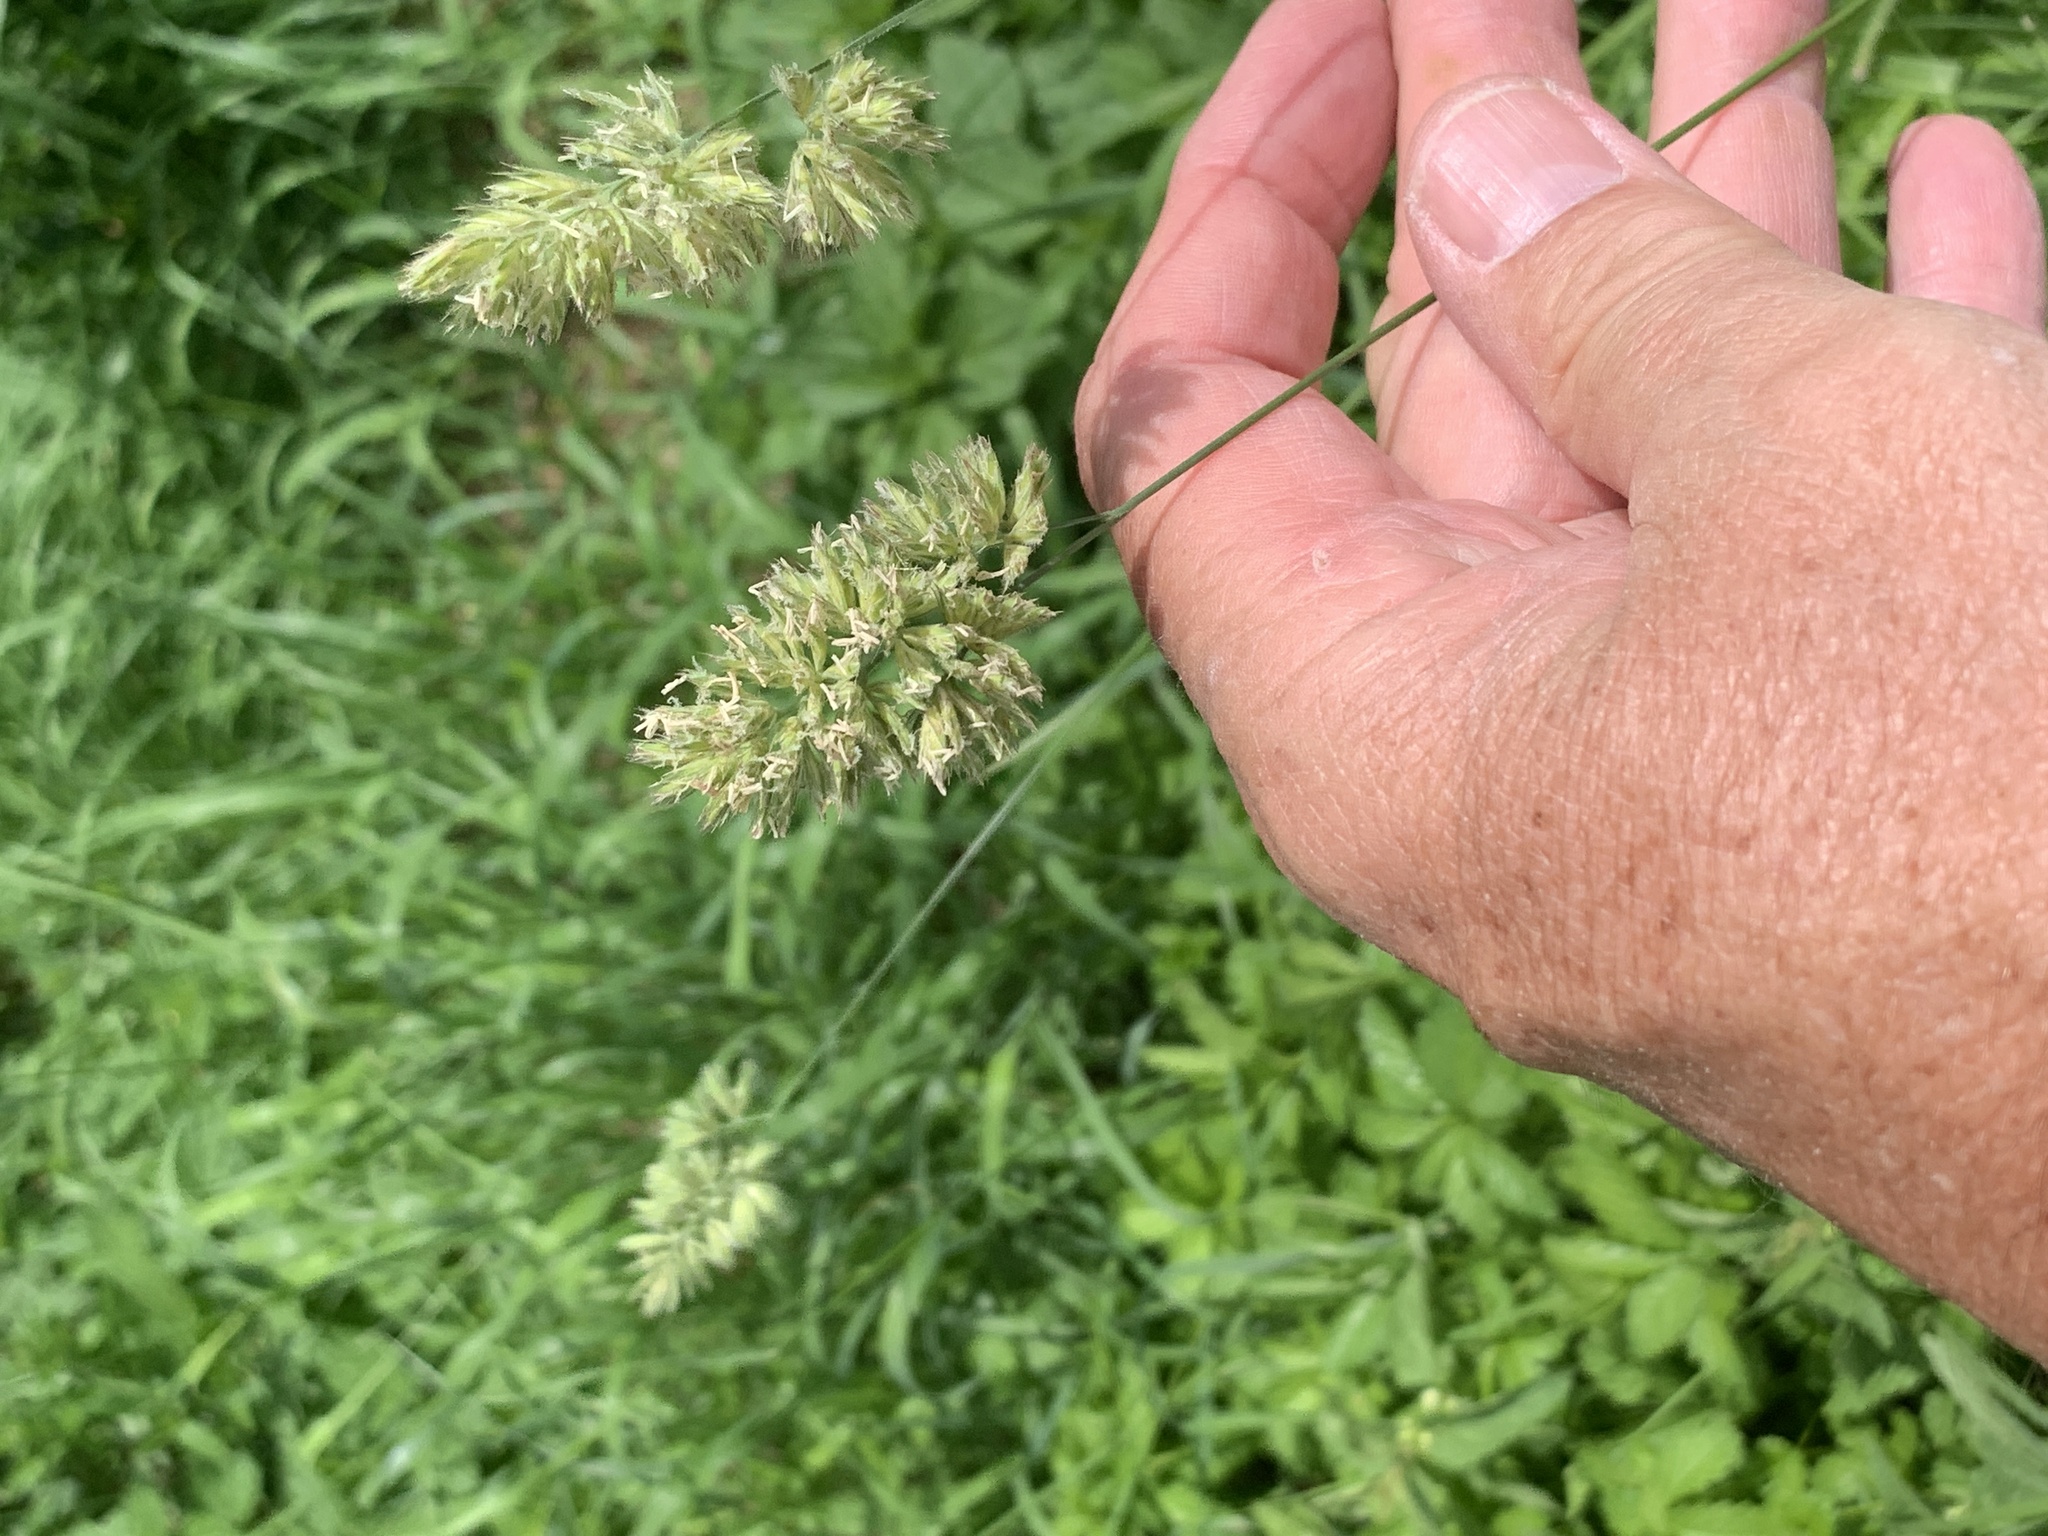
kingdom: Plantae
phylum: Tracheophyta
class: Liliopsida
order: Poales
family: Poaceae
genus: Dactylis
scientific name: Dactylis glomerata
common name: Orchardgrass
